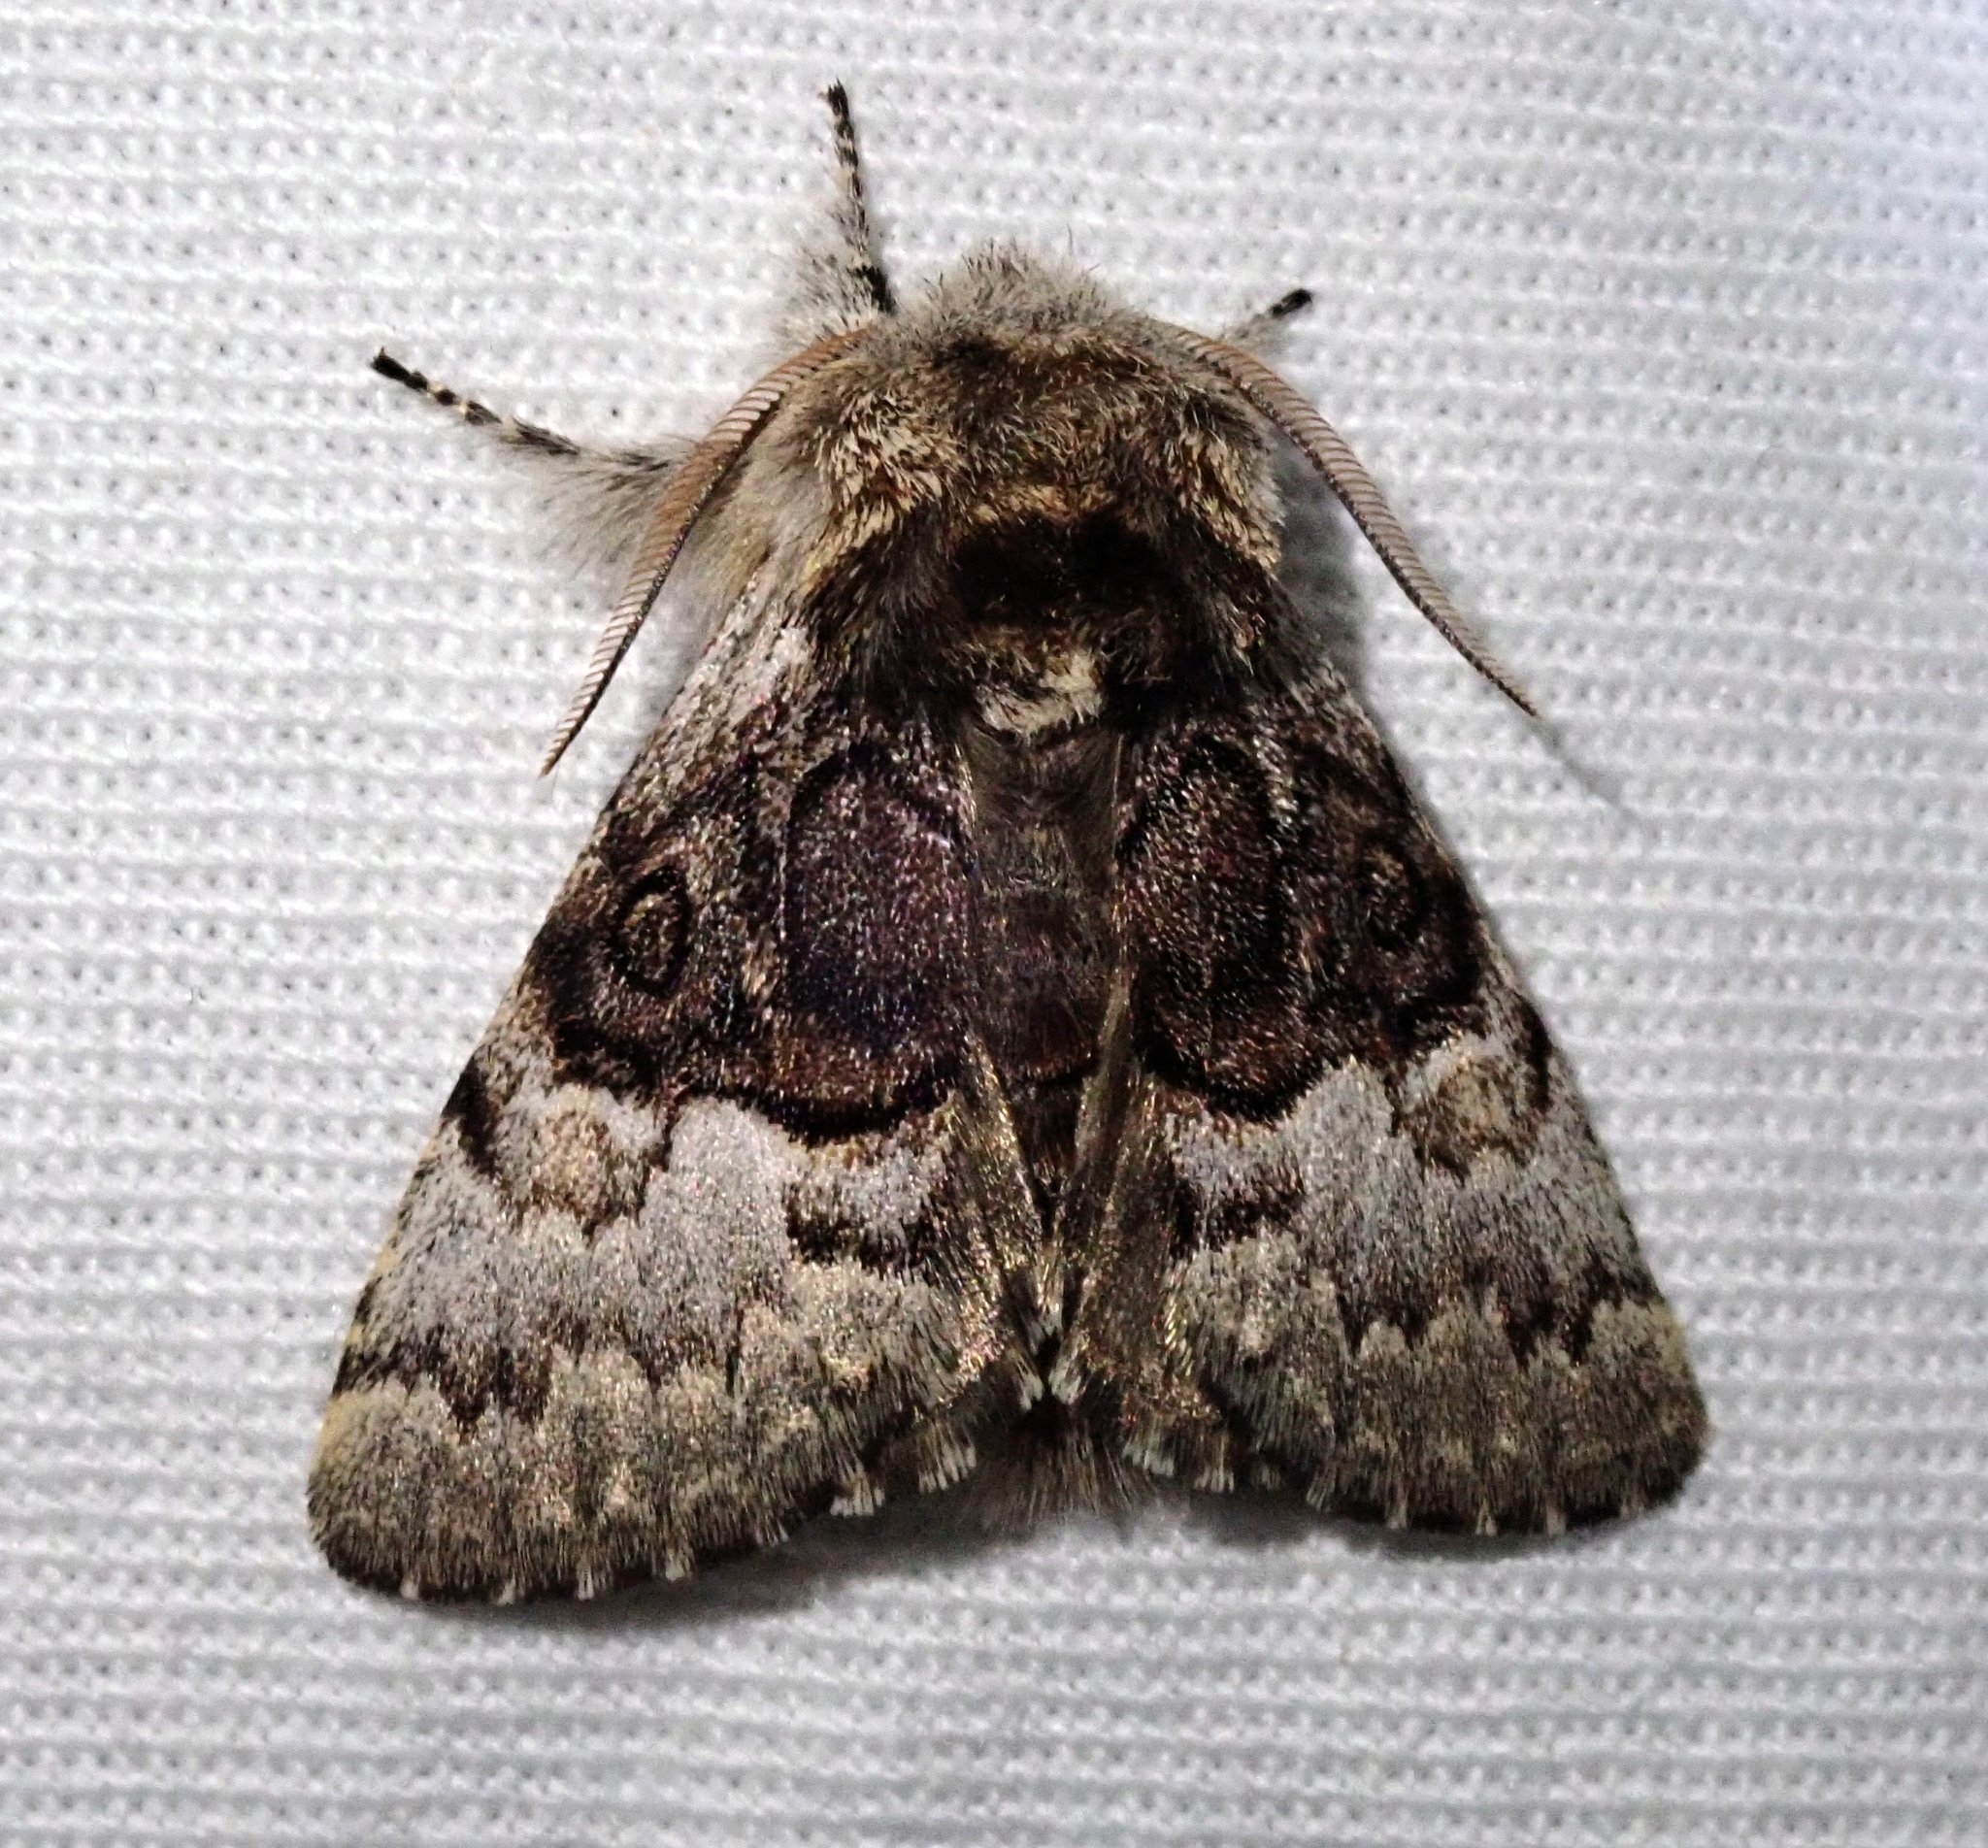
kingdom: Animalia
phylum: Arthropoda
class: Insecta
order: Lepidoptera
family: Noctuidae
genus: Colocasia
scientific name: Colocasia coryli
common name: Nut-tree tussock
